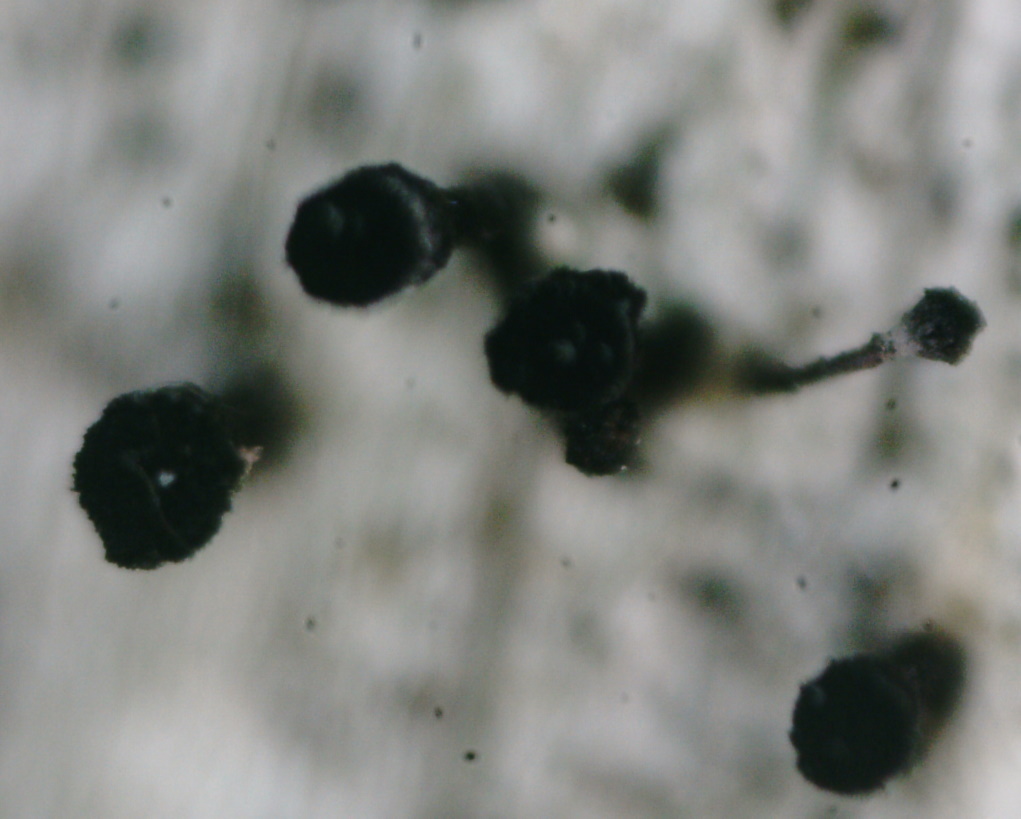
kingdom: Fungi
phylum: Ascomycota
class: Lecanoromycetes
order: Caliciales
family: Caliciaceae
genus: Calicium
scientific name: Calicium glaucellum
